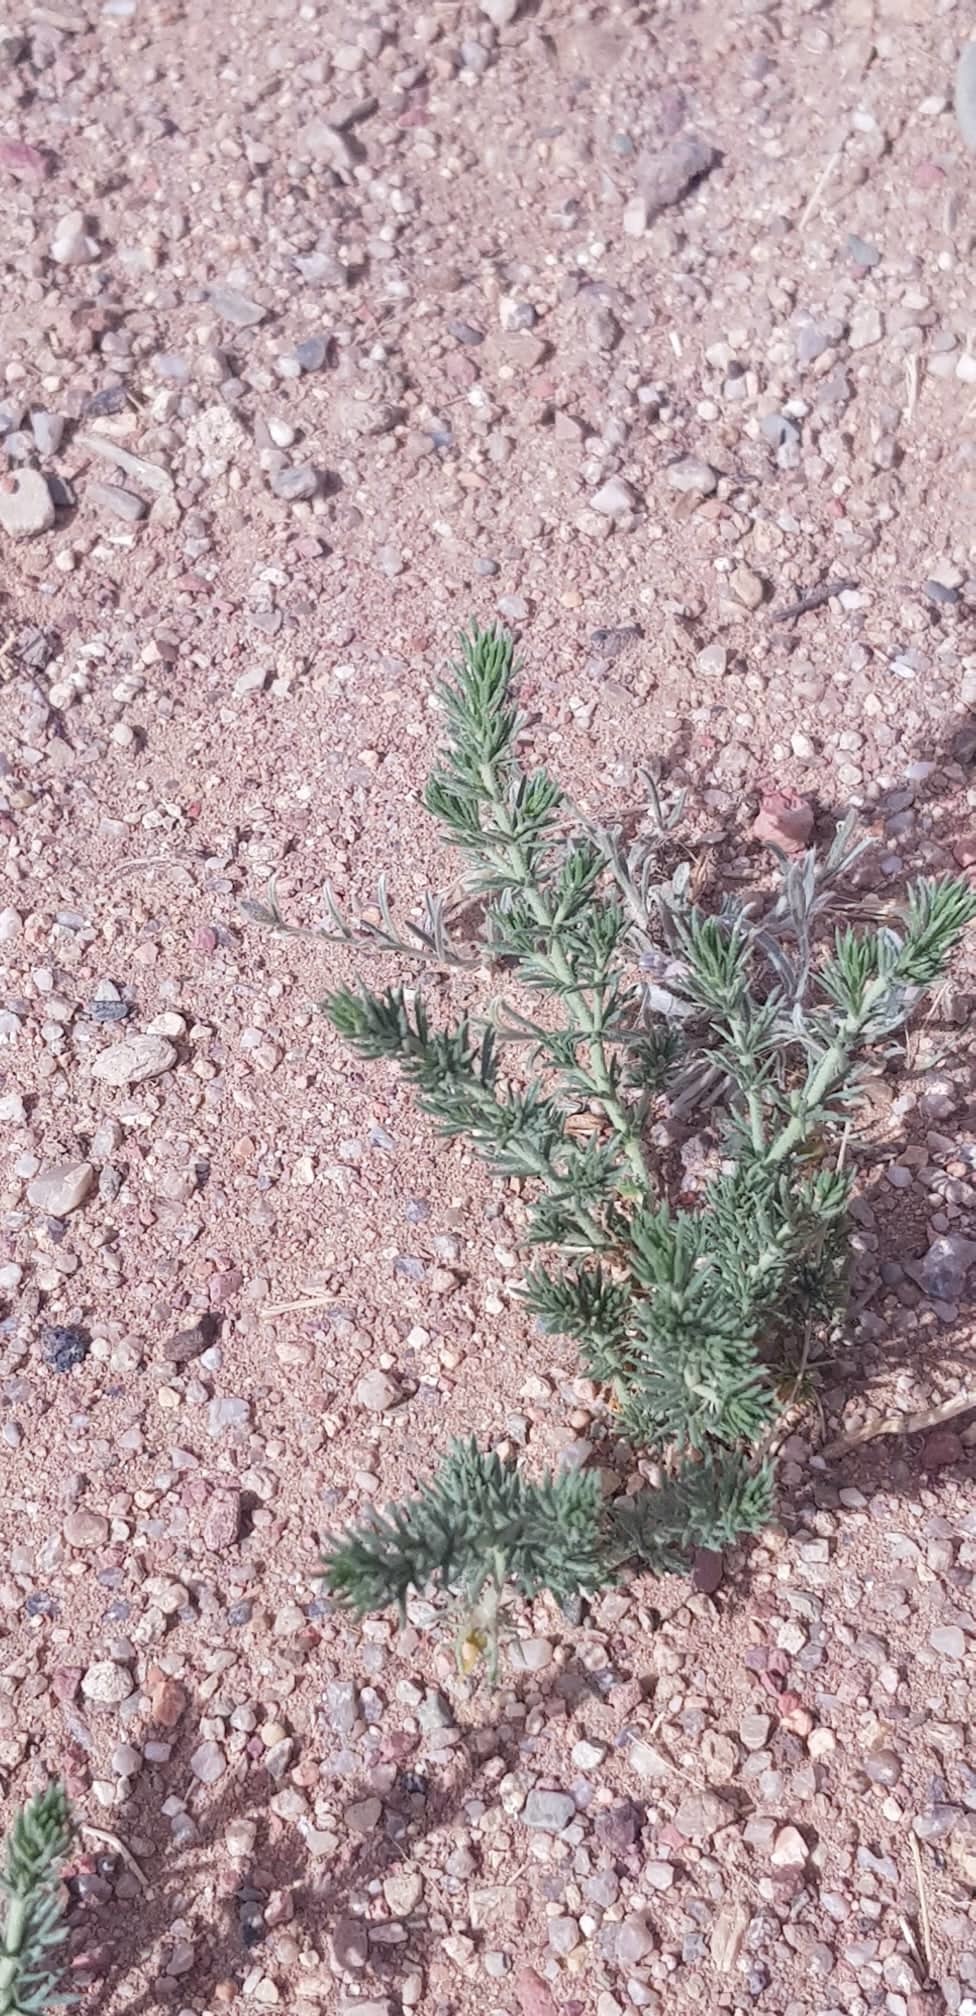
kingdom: Plantae
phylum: Tracheophyta
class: Magnoliopsida
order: Sapindales
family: Tetradiclidaceae
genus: Peganum
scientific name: Peganum nigellastrum
